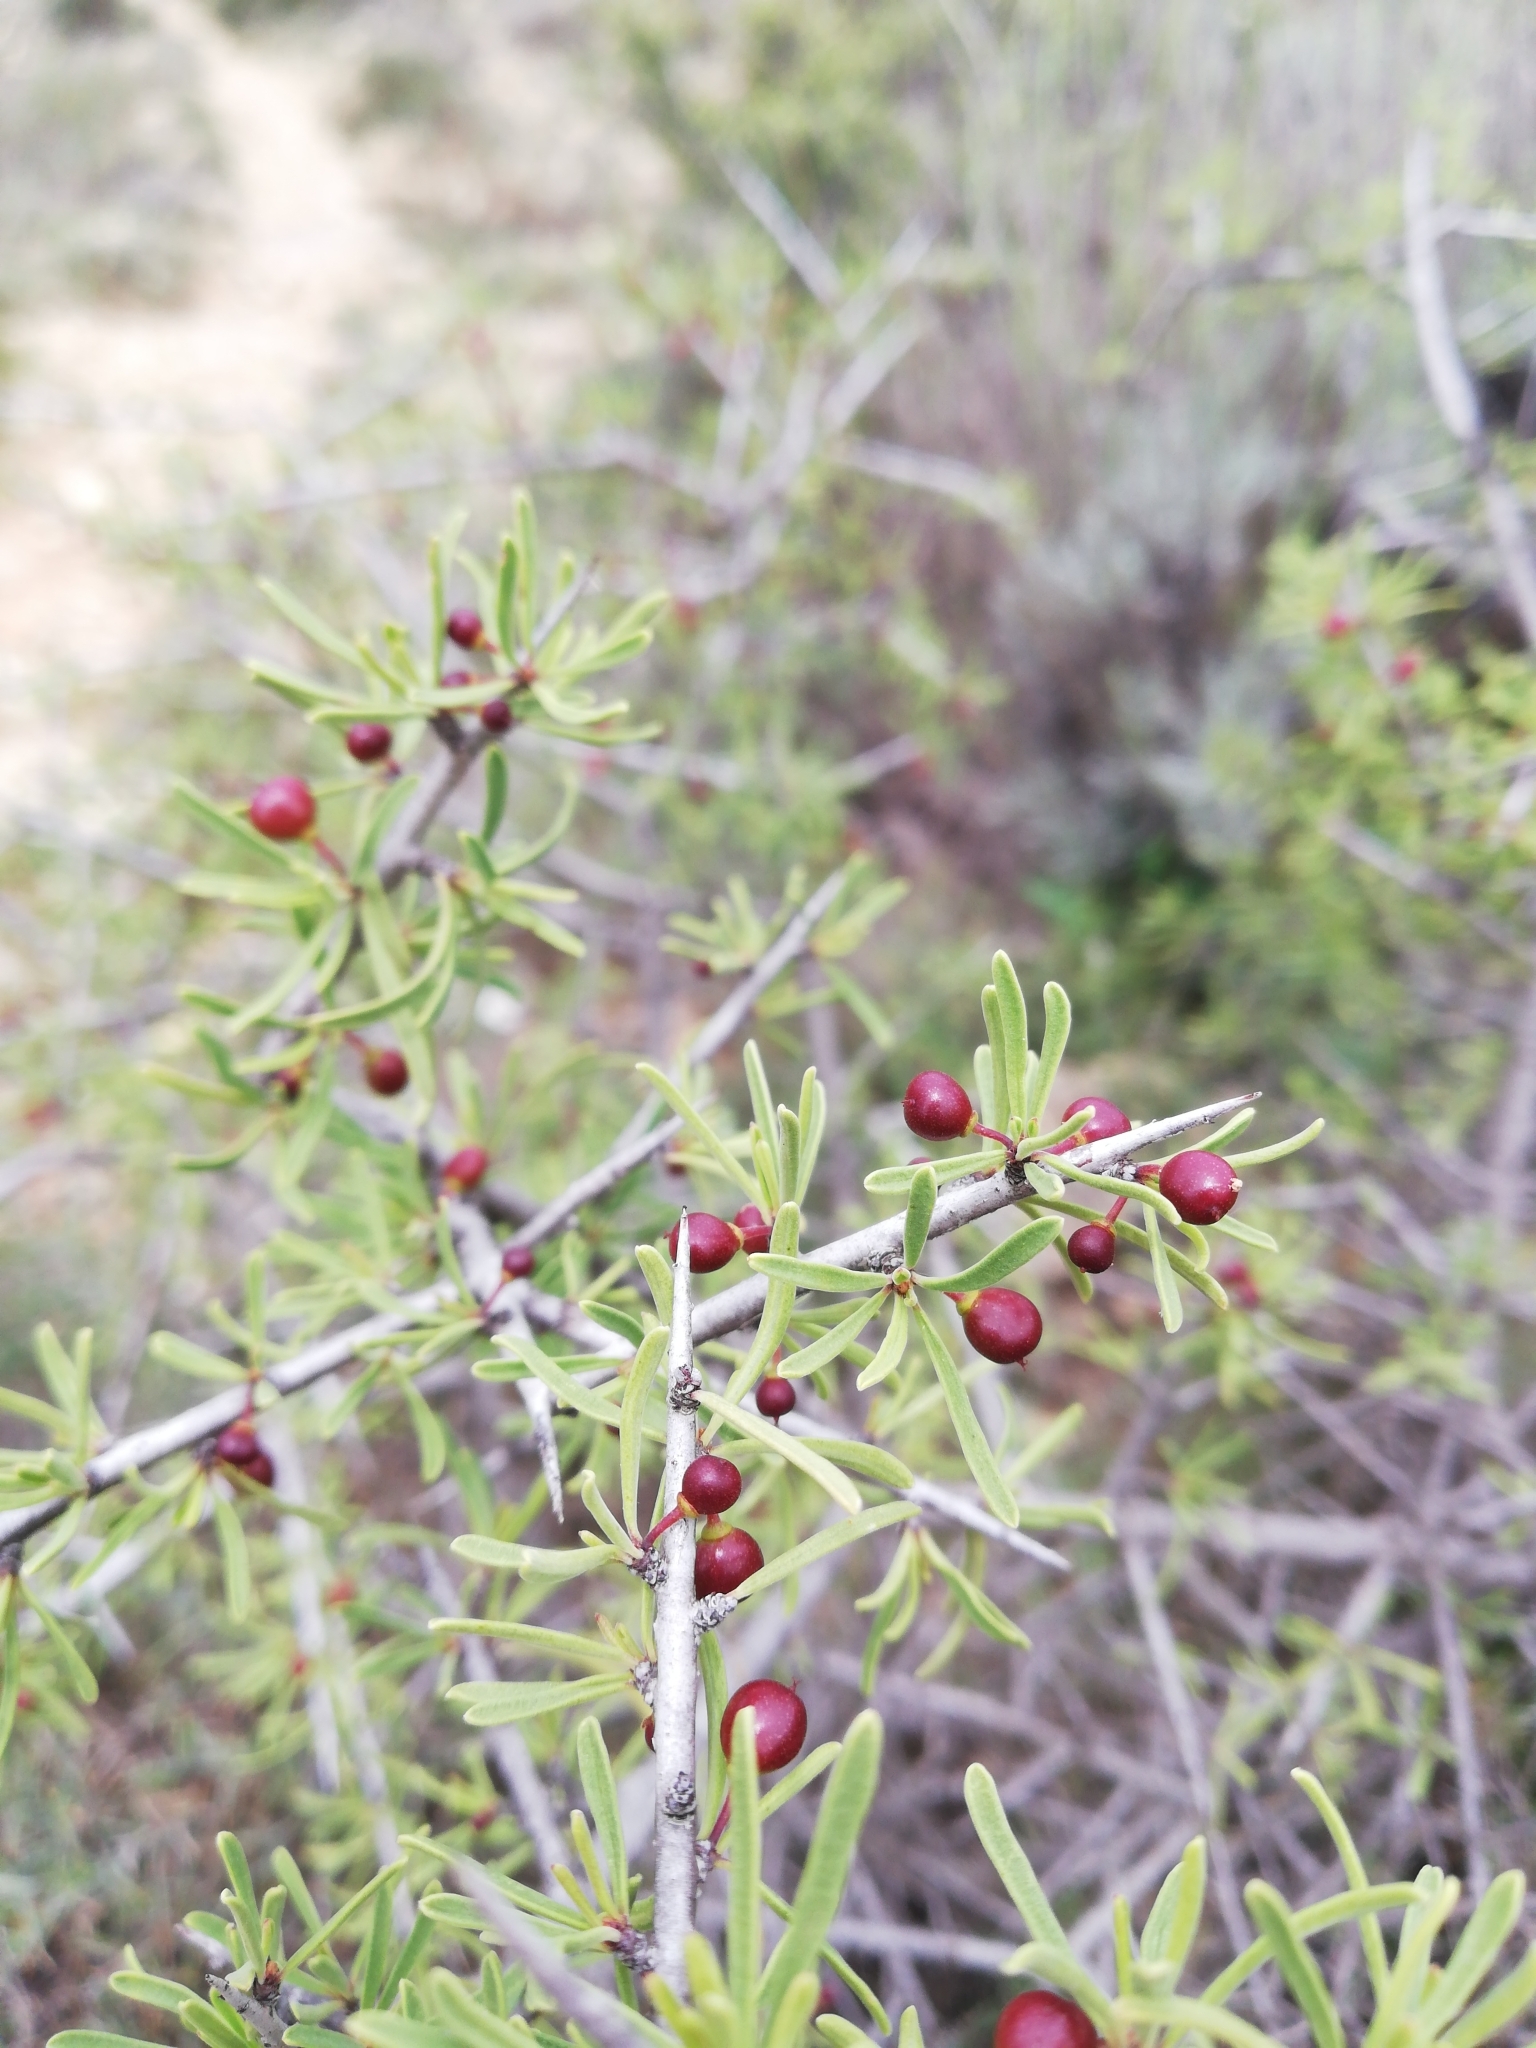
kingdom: Plantae
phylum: Tracheophyta
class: Magnoliopsida
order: Rosales
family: Rhamnaceae
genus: Rhamnus
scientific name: Rhamnus lycioides
